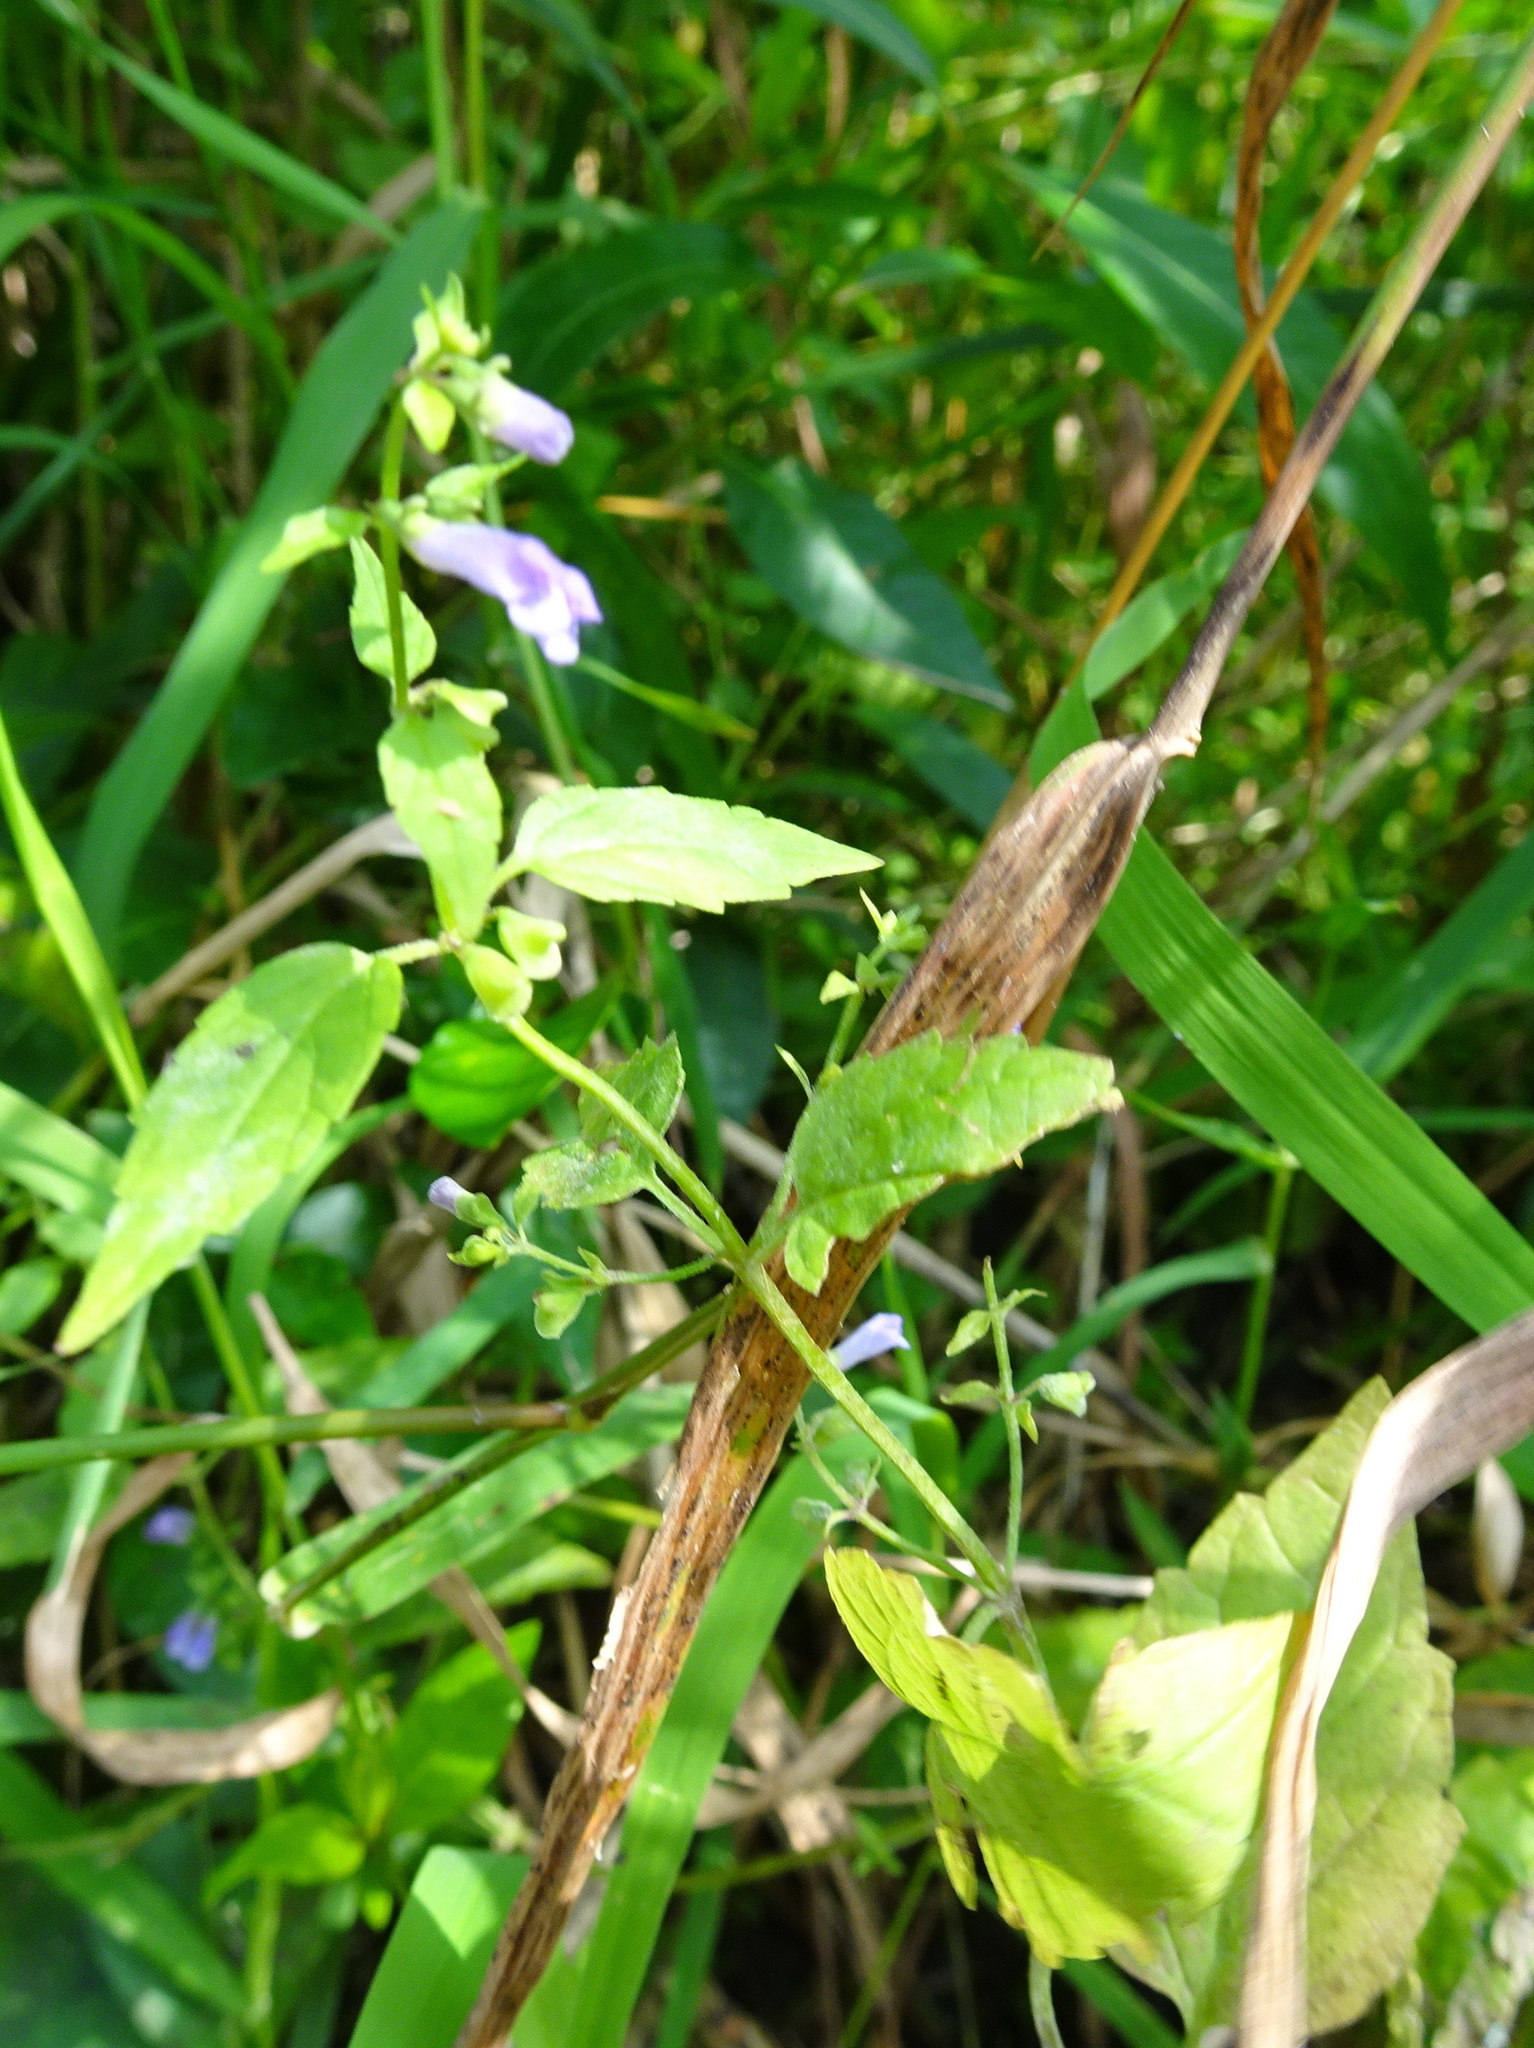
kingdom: Plantae
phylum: Tracheophyta
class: Magnoliopsida
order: Lamiales
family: Lamiaceae
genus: Scutellaria
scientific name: Scutellaria lateriflora
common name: Blue skullcap
